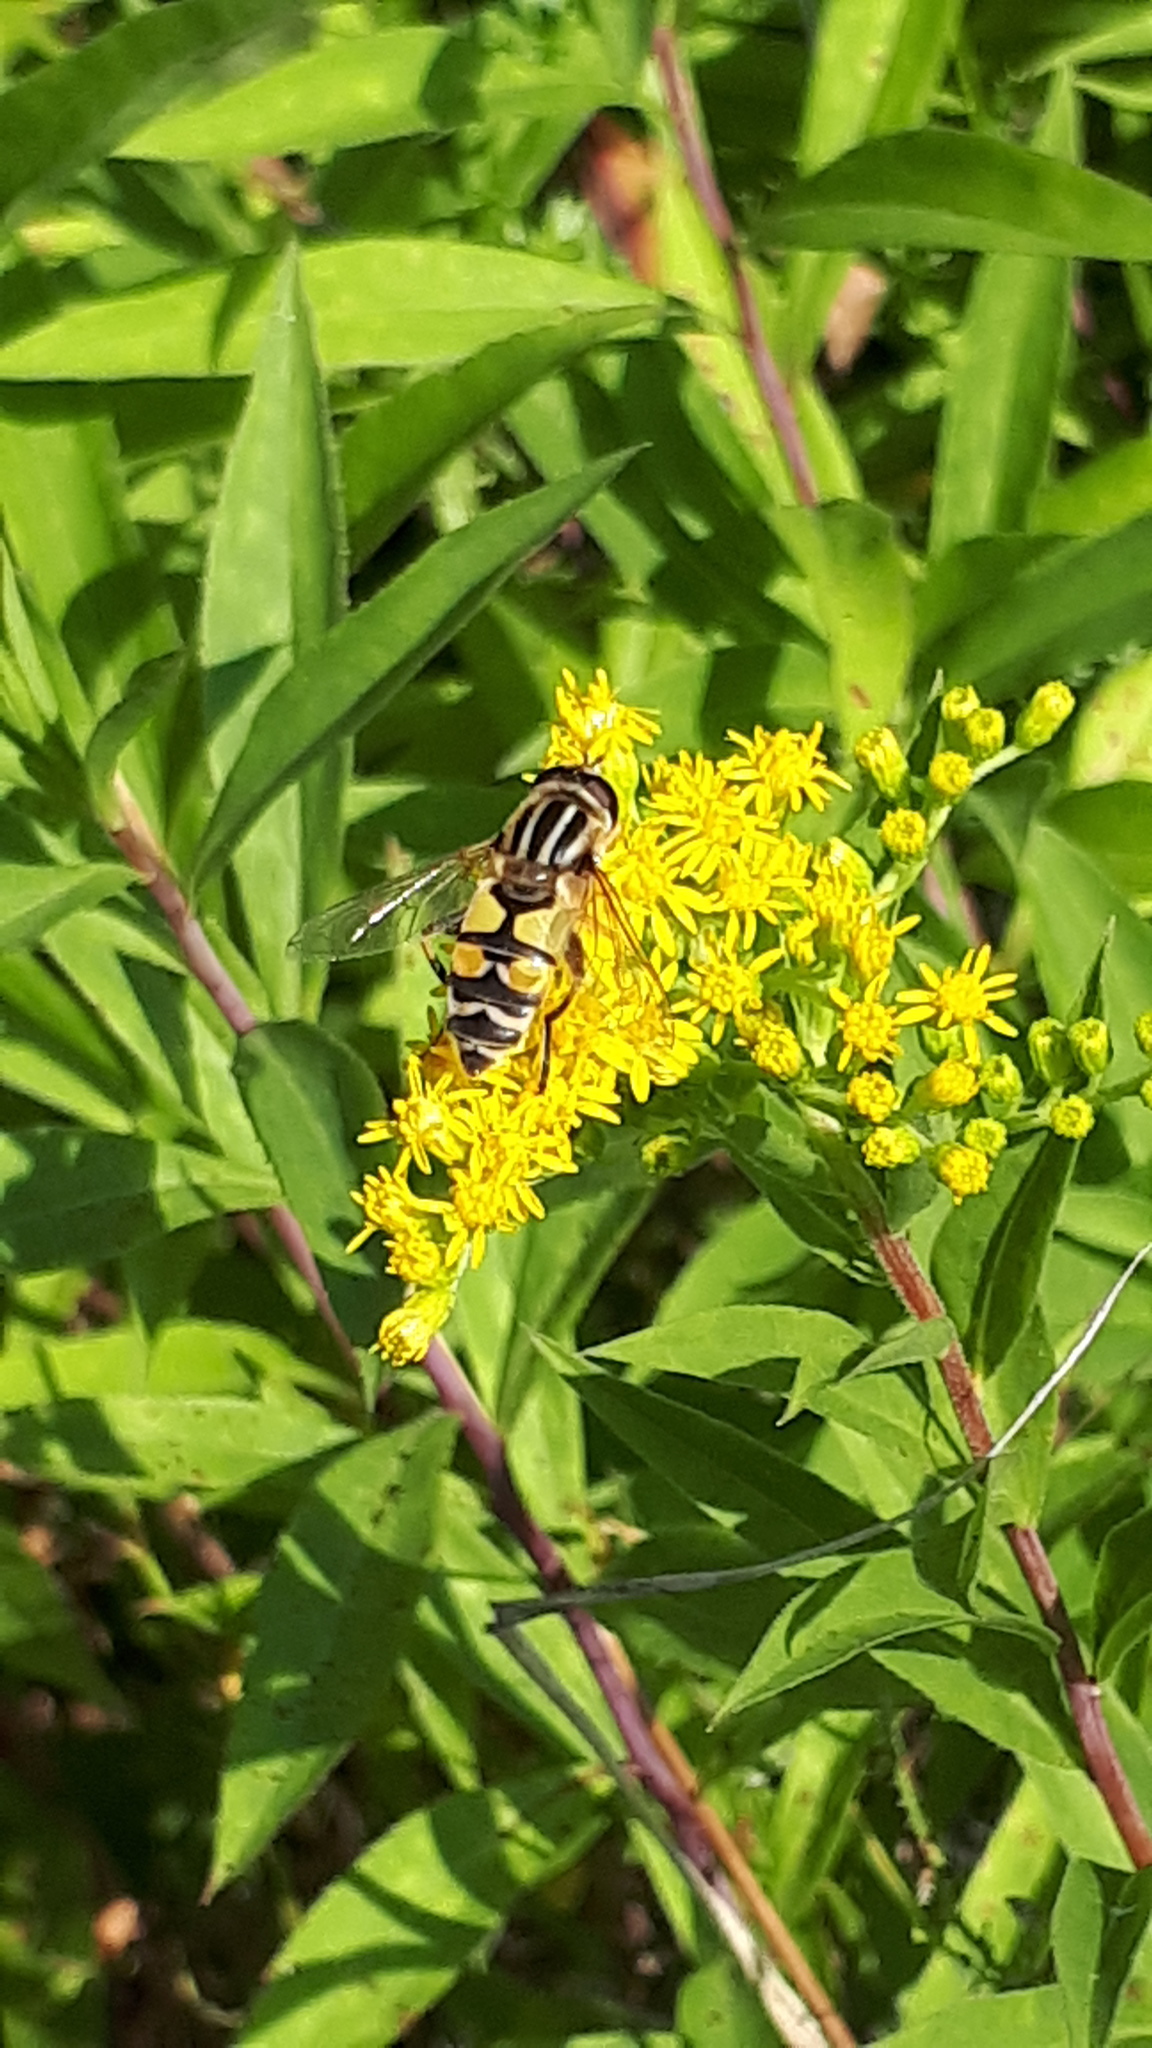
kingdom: Animalia
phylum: Arthropoda
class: Insecta
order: Diptera
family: Syrphidae
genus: Helophilus
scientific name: Helophilus trivittatus
